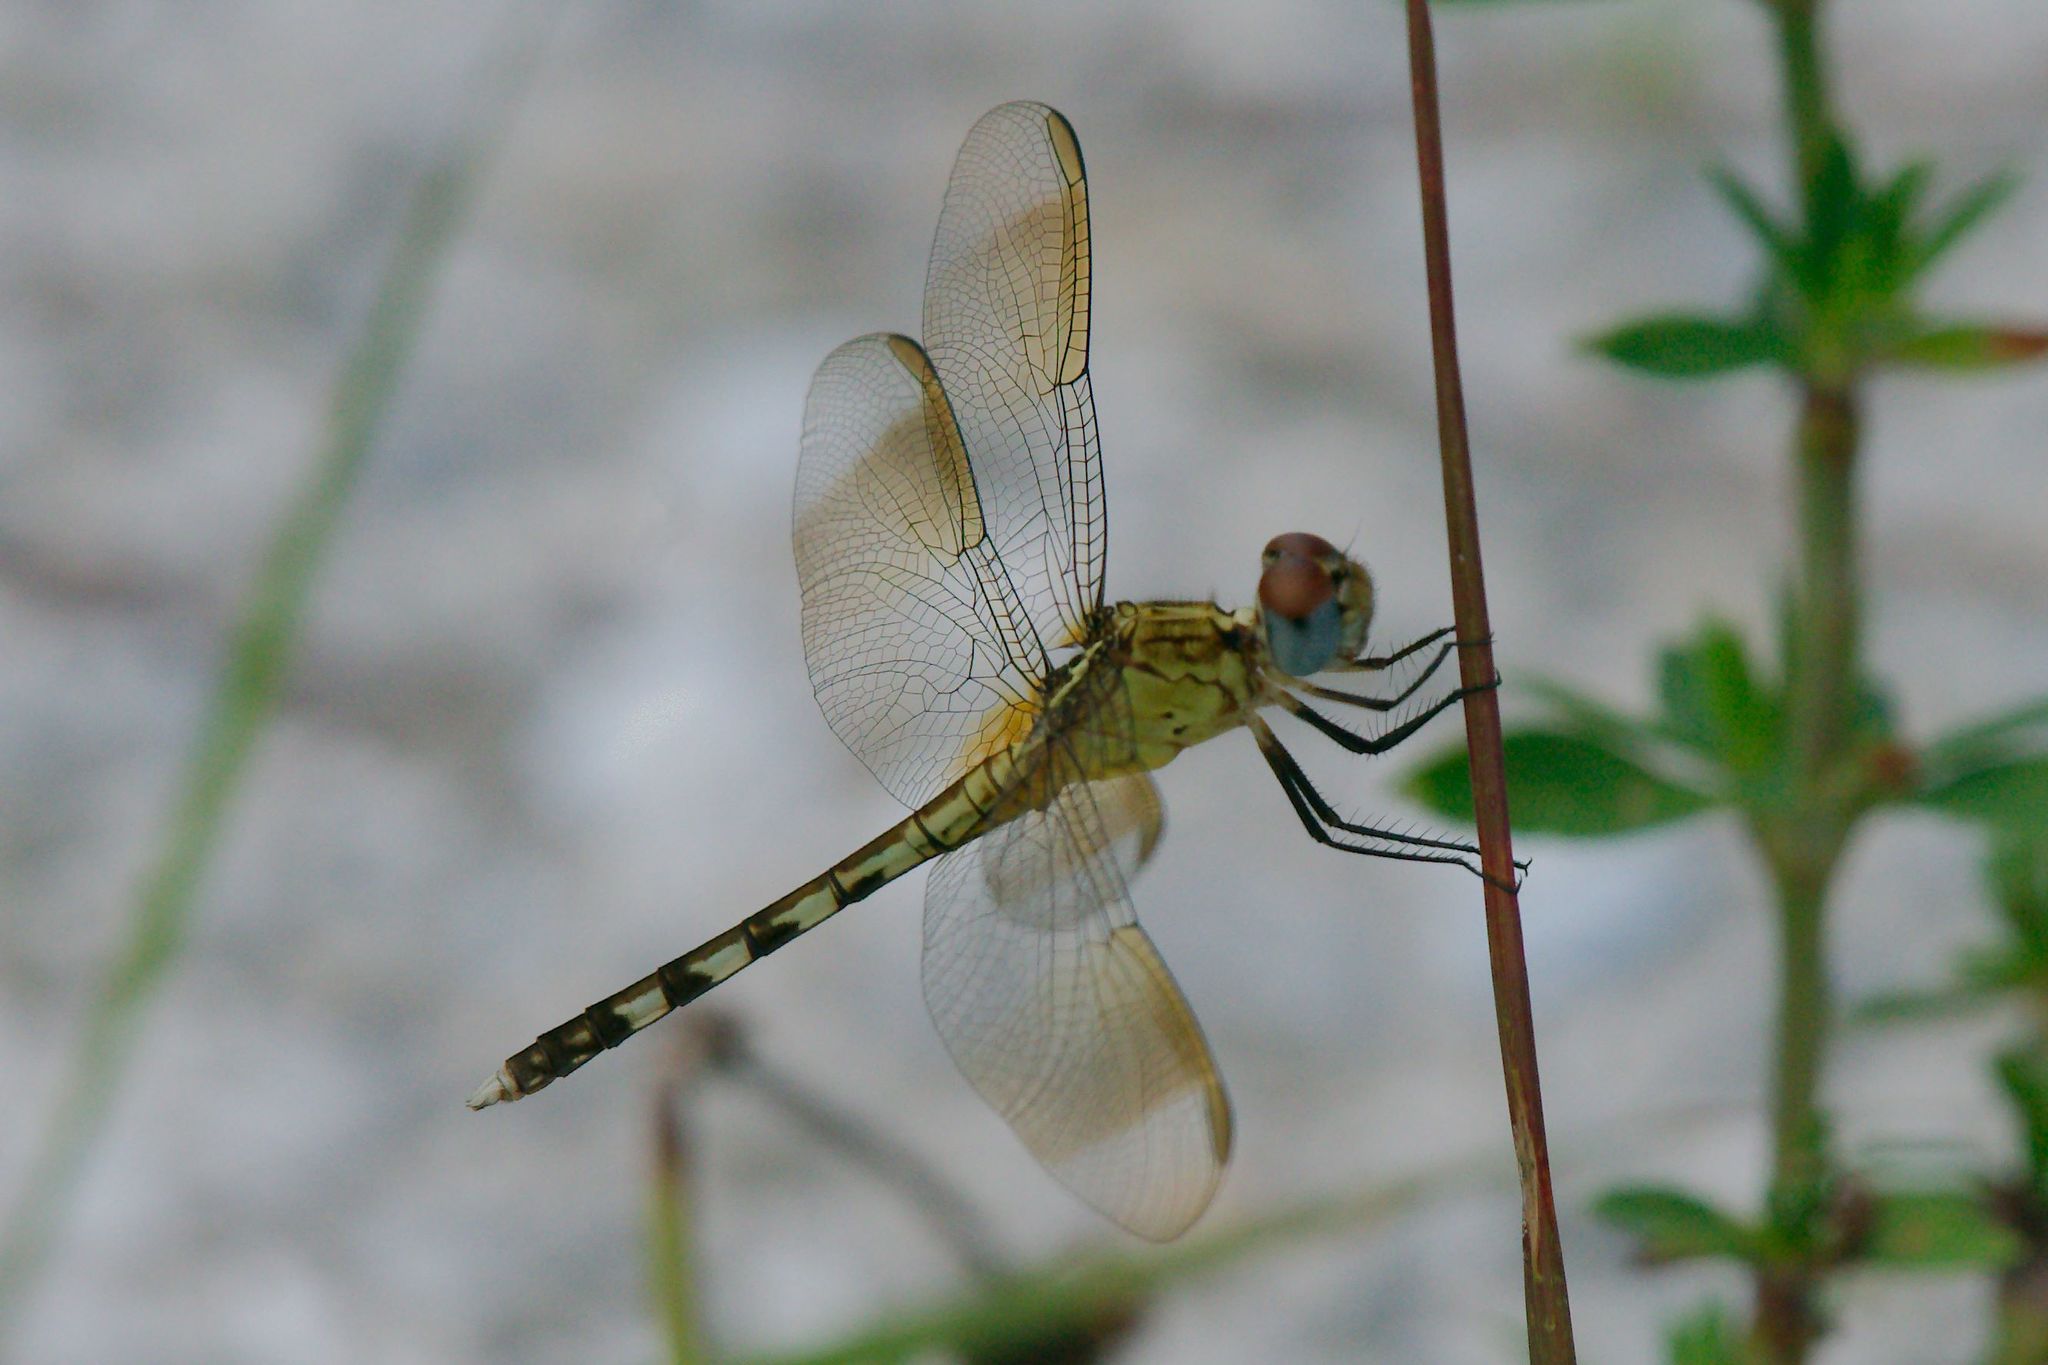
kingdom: Animalia
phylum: Arthropoda
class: Insecta
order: Odonata
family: Libellulidae
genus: Erythrodiplax
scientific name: Erythrodiplax umbrata
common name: Band-winged dragonlet
